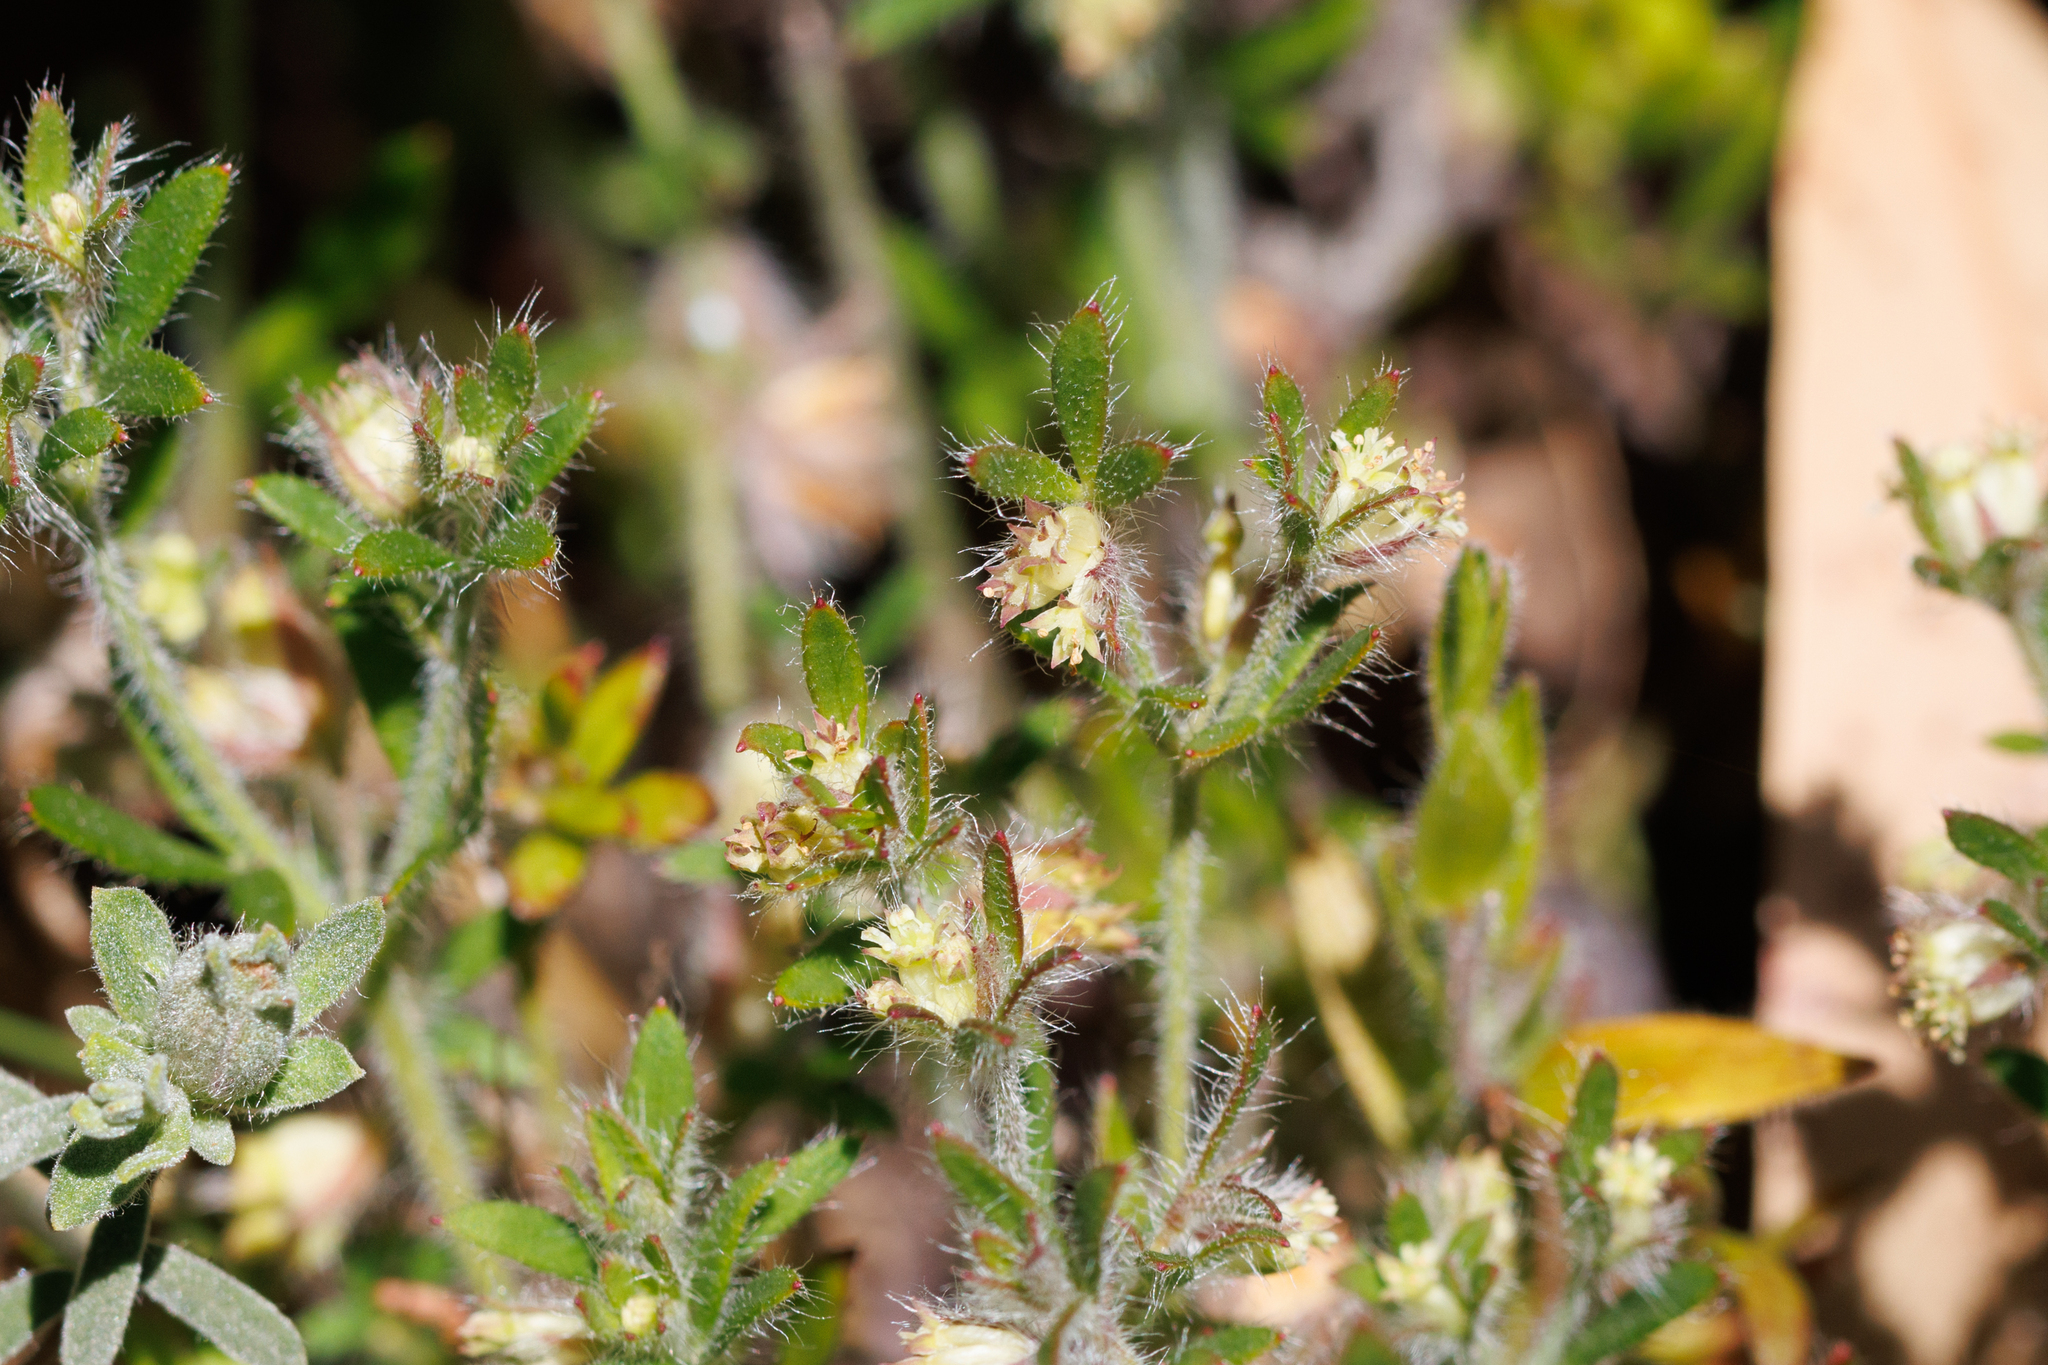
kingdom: Plantae
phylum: Tracheophyta
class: Magnoliopsida
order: Apiales
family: Apiaceae
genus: Xanthosia
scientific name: Xanthosia huegelii
